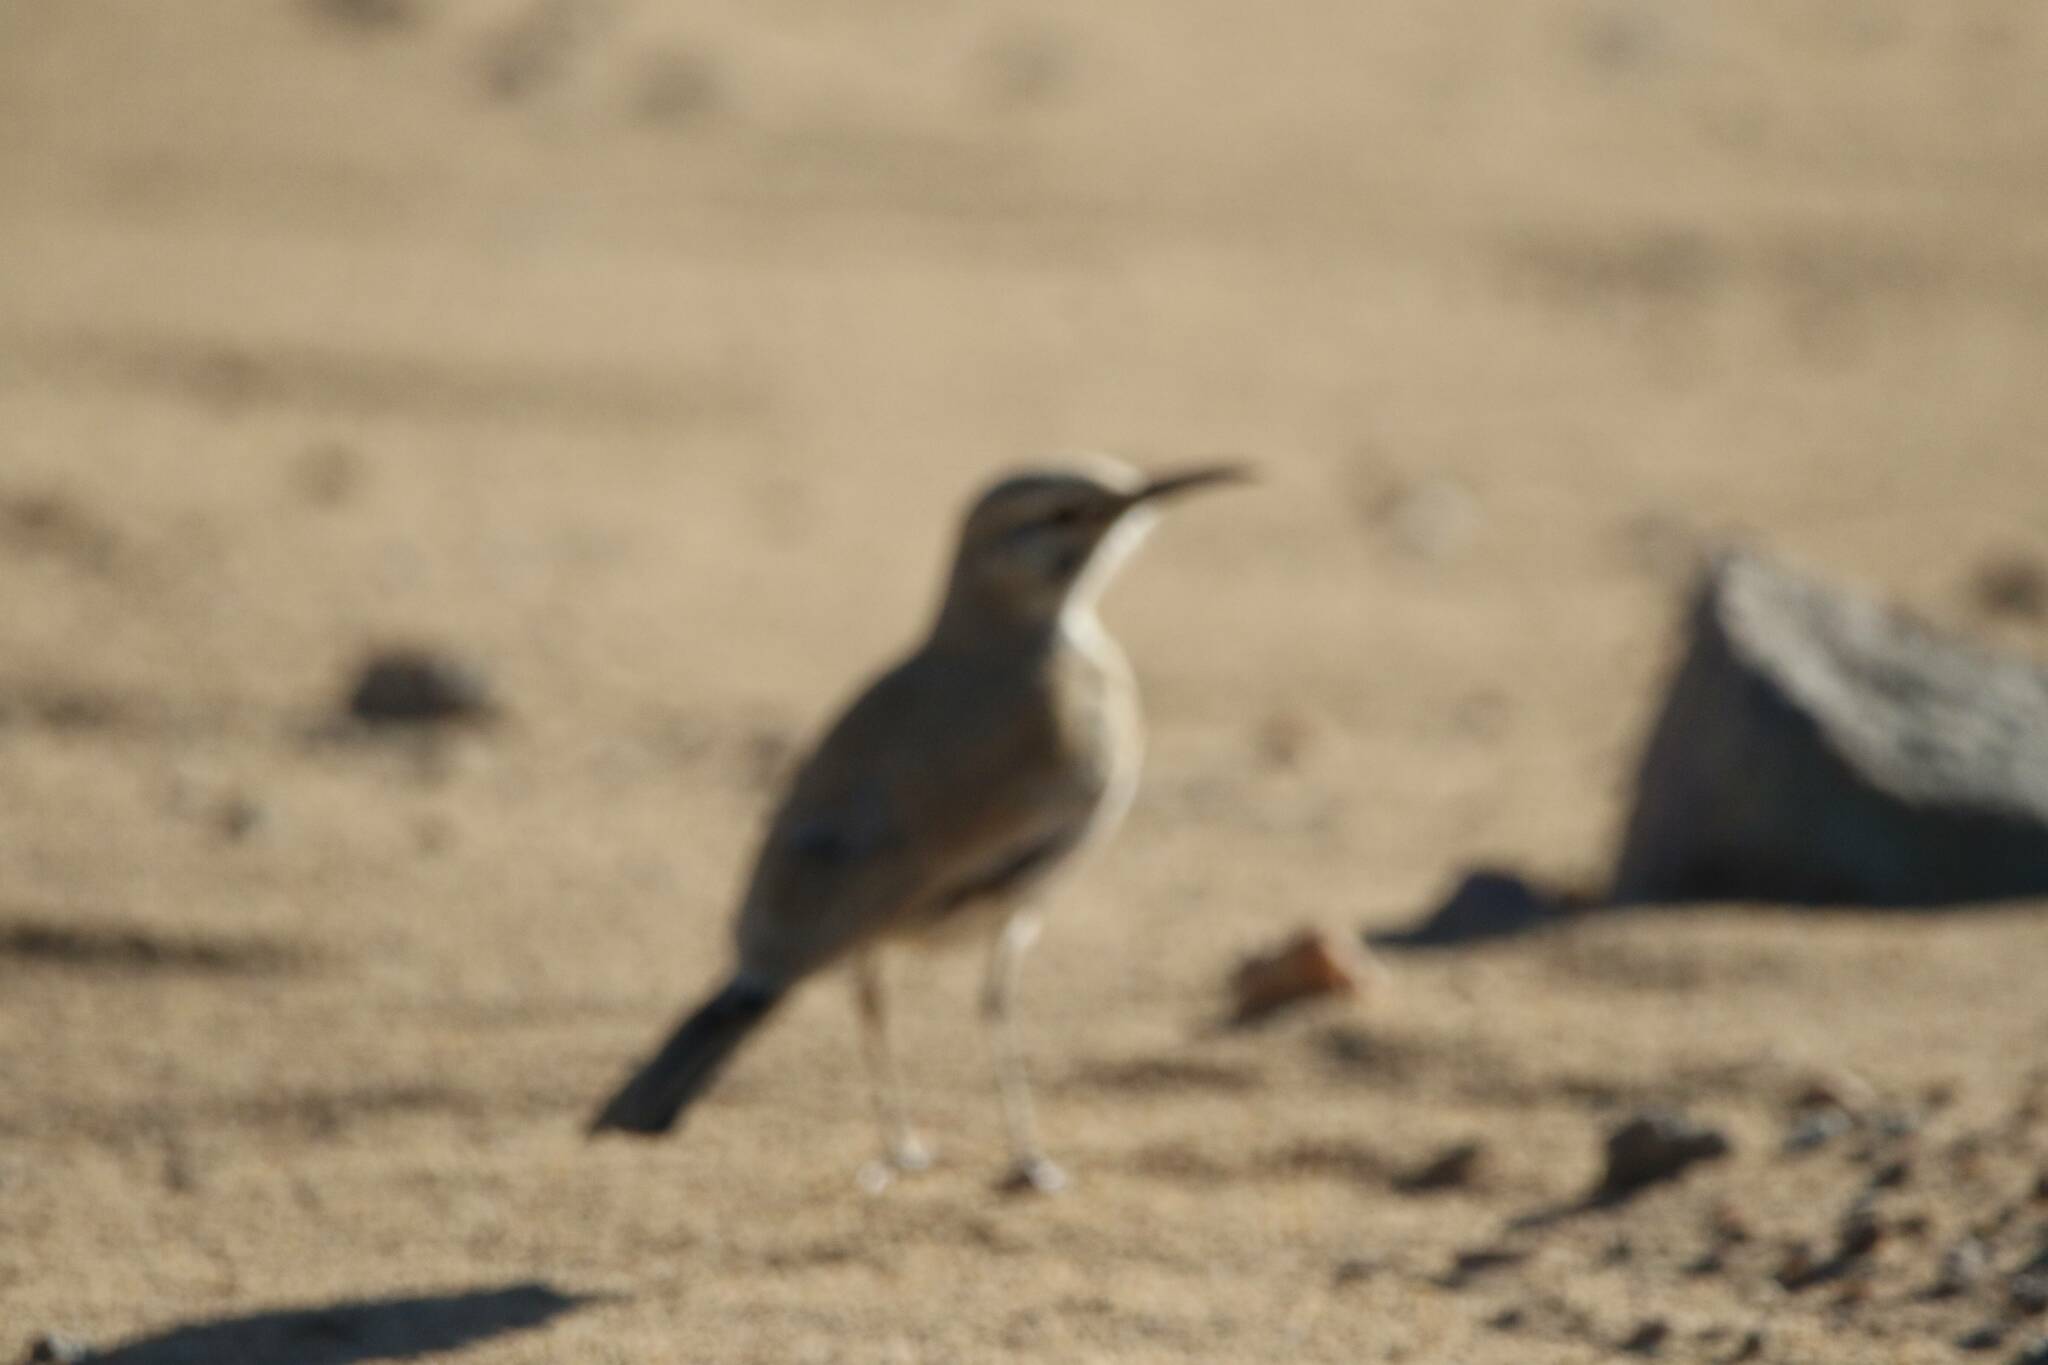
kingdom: Animalia
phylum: Chordata
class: Aves
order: Passeriformes
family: Alaudidae
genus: Alaemon
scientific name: Alaemon alaudipes
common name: Greater hoopoe-lark
